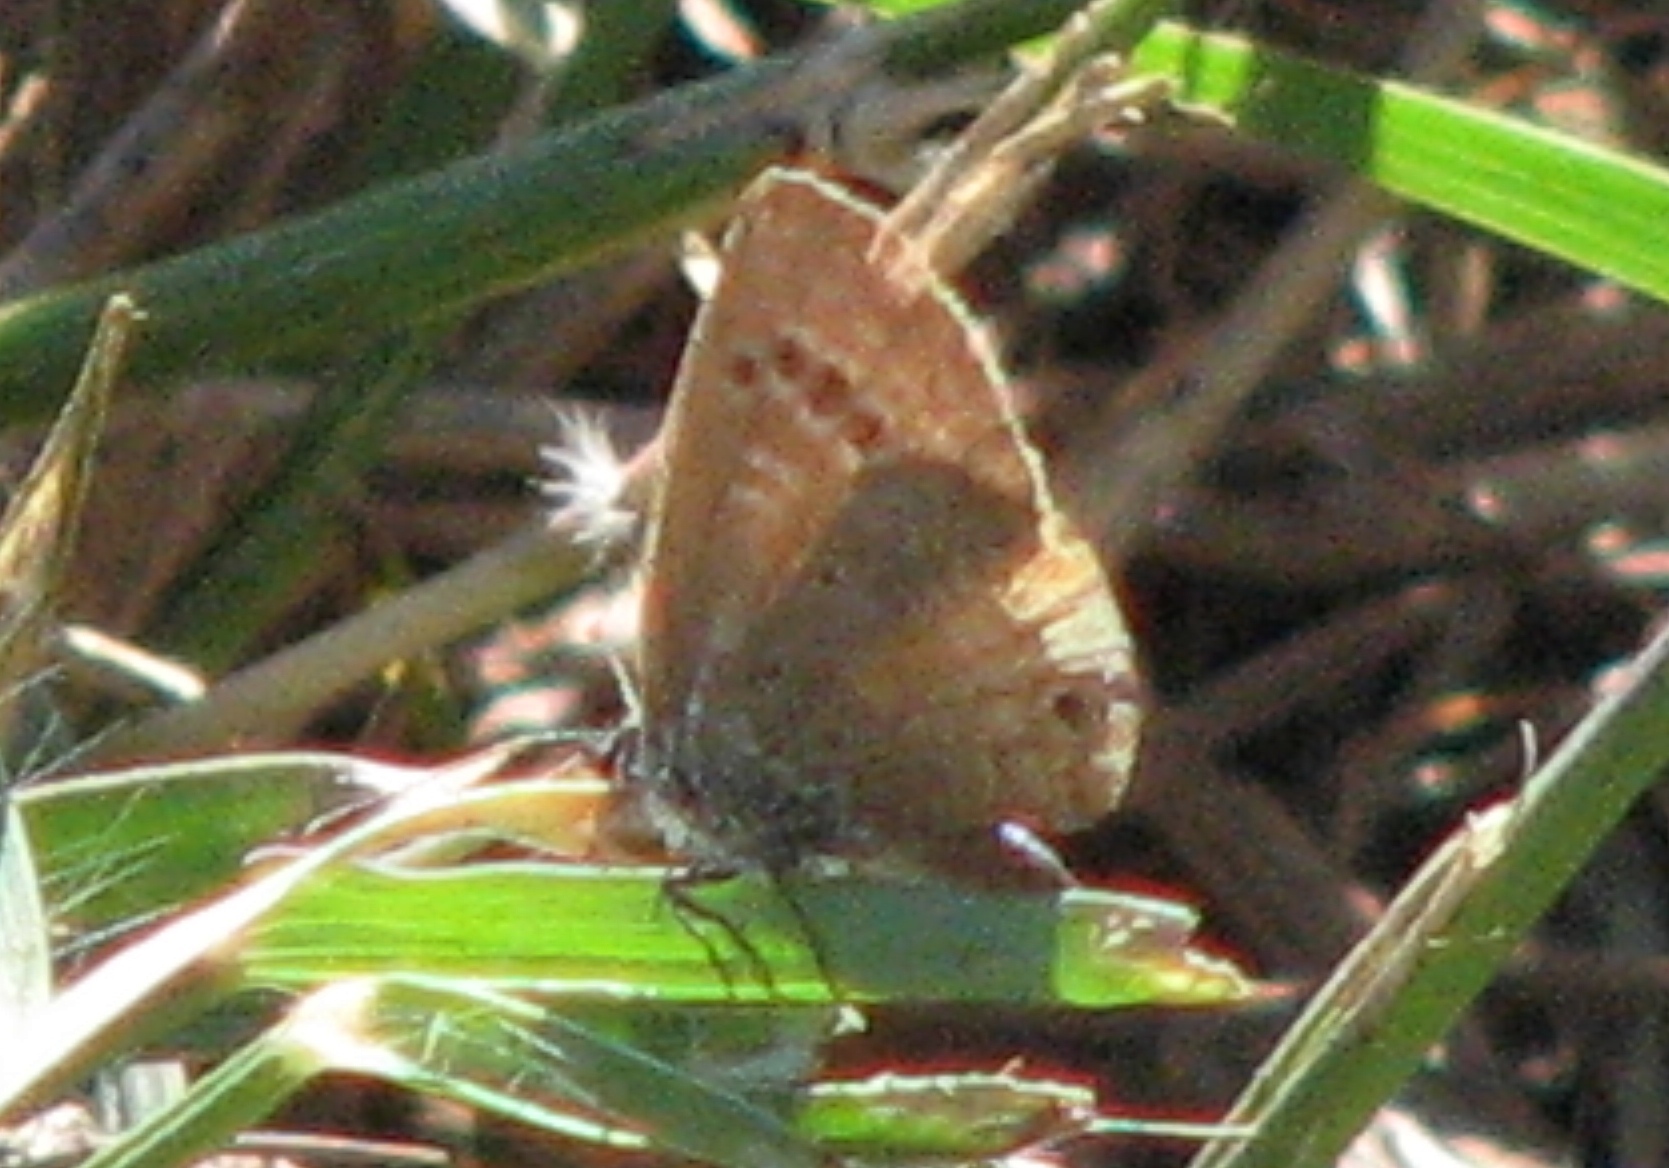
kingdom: Animalia
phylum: Arthropoda
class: Insecta
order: Lepidoptera
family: Lycaenidae
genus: Echinargus
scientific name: Echinargus isola
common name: Reakirt's blue
